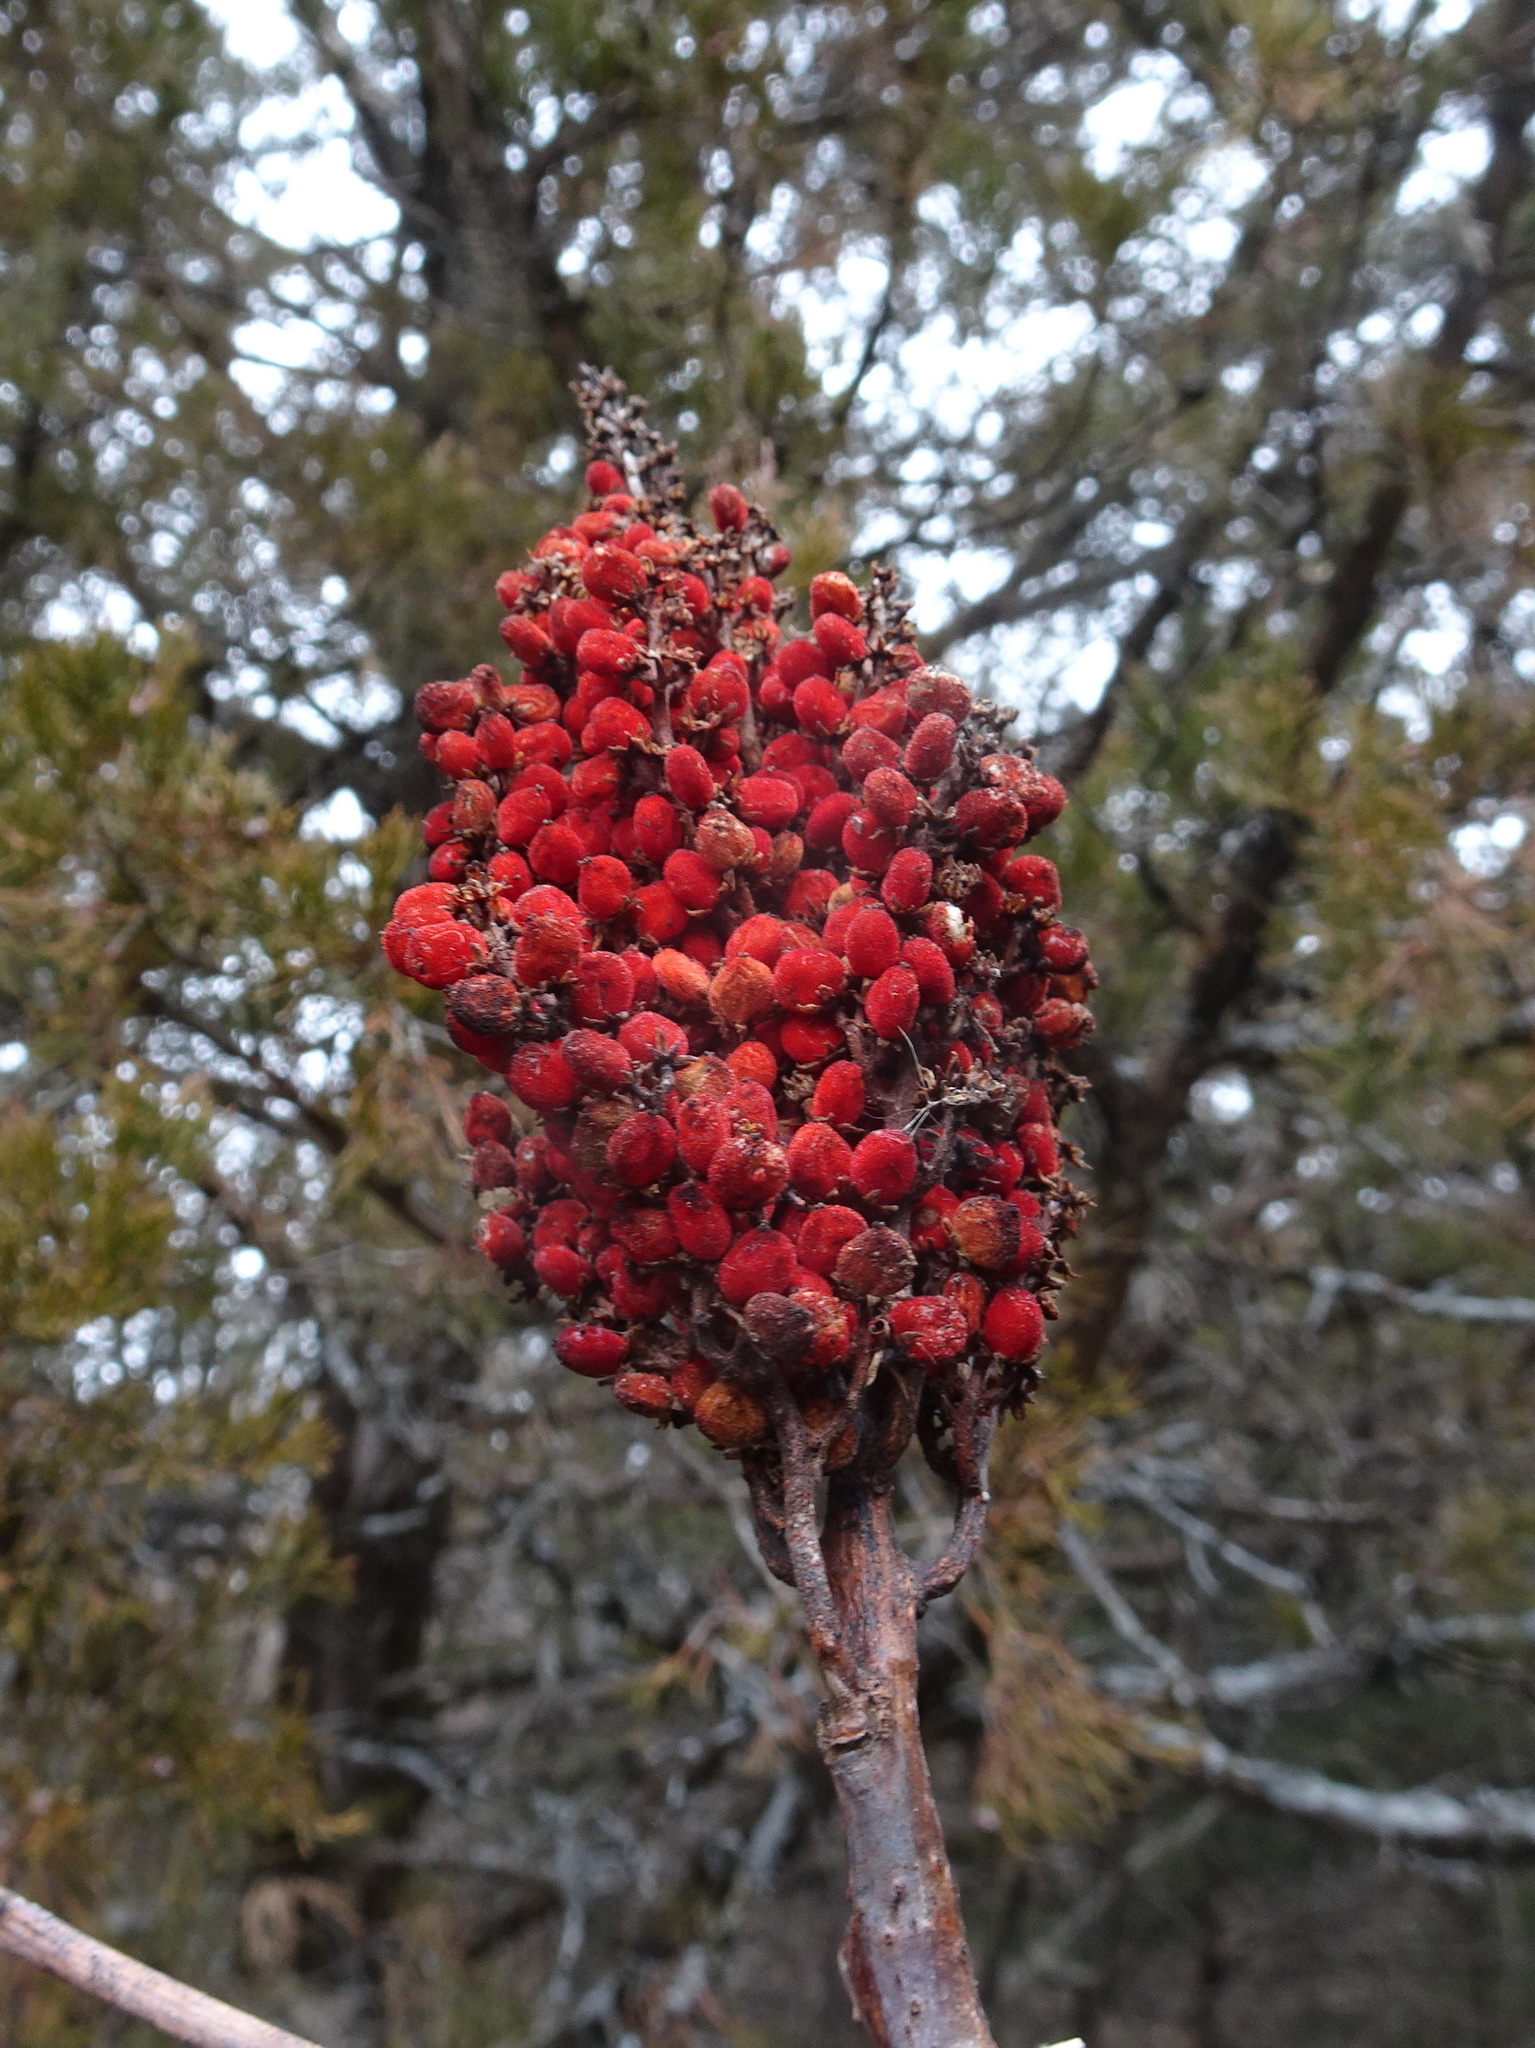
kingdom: Plantae
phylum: Tracheophyta
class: Magnoliopsida
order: Sapindales
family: Anacardiaceae
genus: Rhus
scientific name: Rhus glabra
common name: Scarlet sumac
